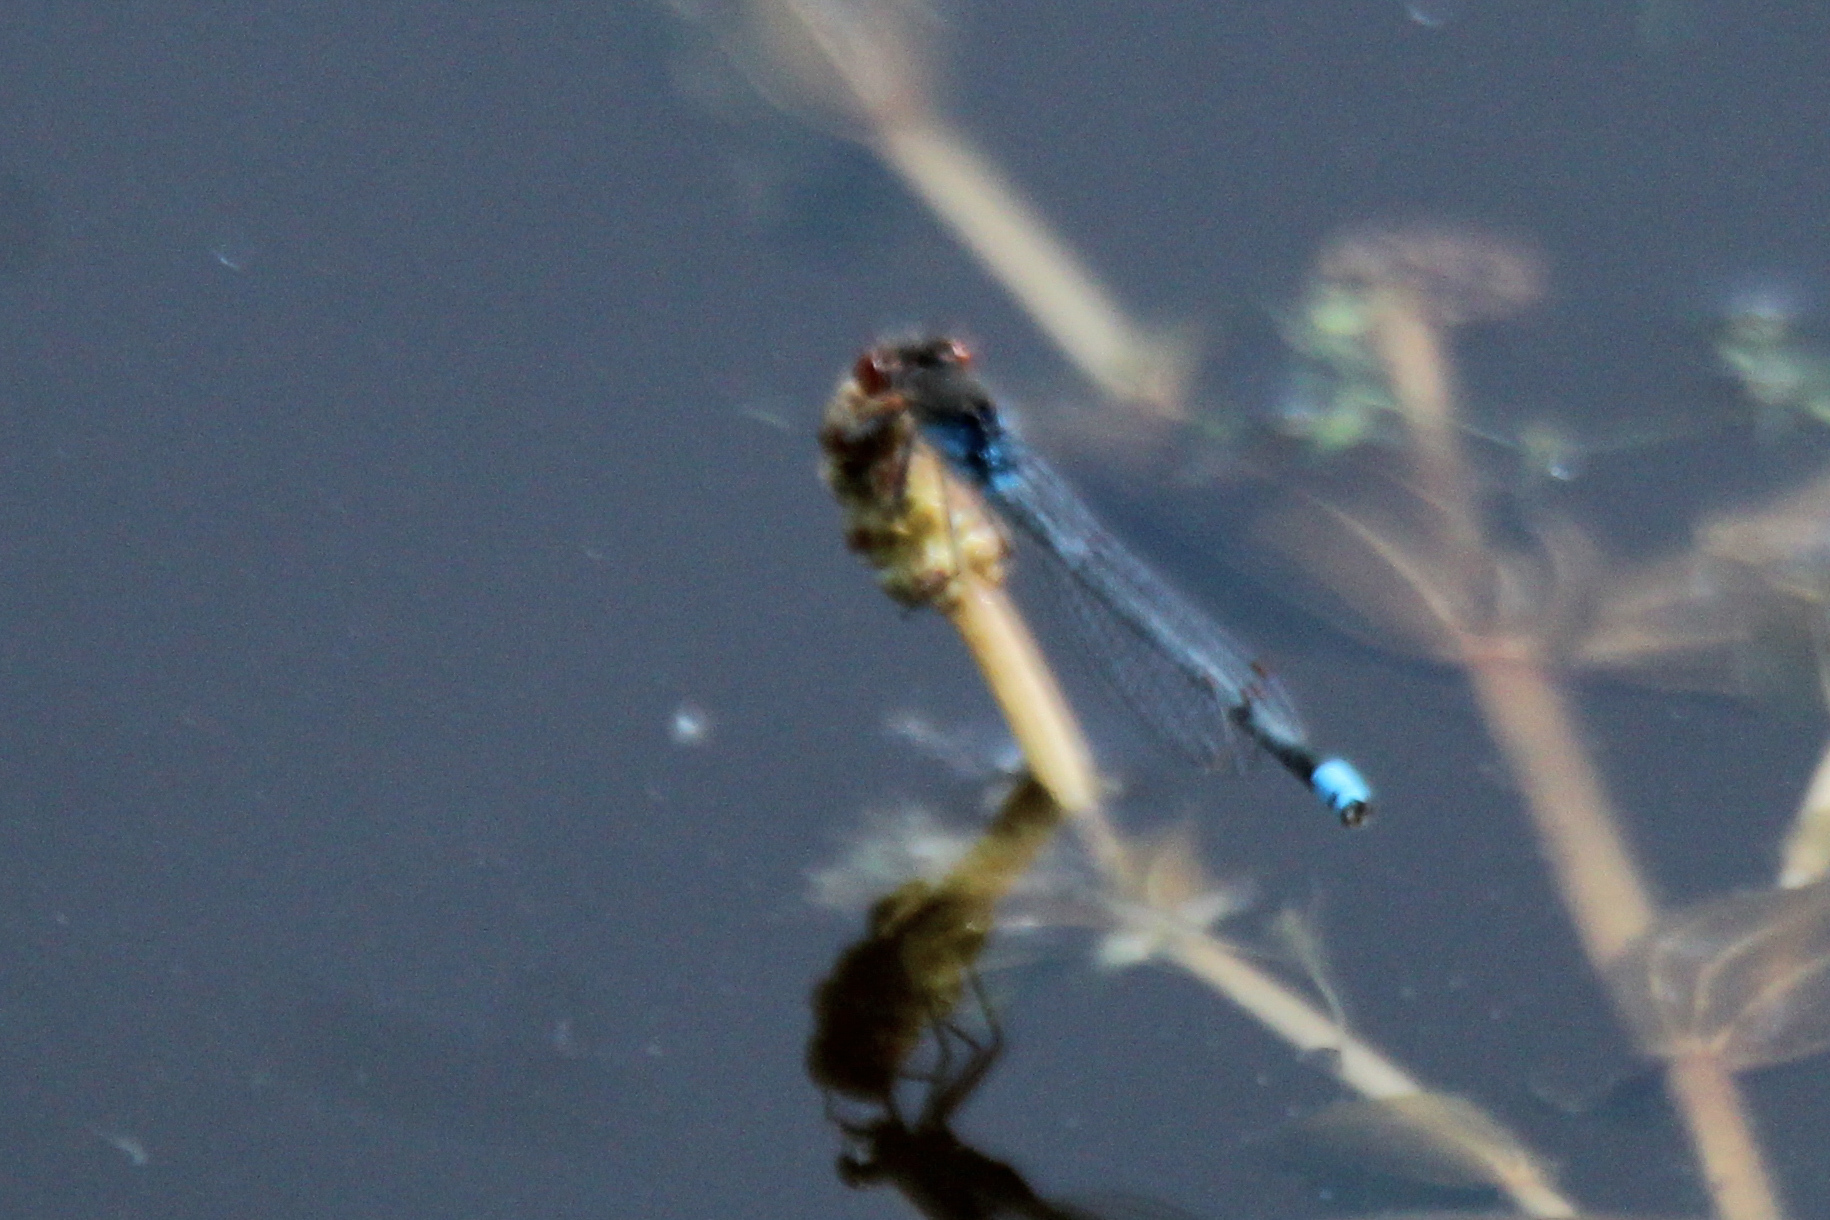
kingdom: Animalia
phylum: Arthropoda
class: Insecta
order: Odonata
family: Coenagrionidae
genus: Erythromma
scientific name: Erythromma najas
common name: Red-eyed damselfly
